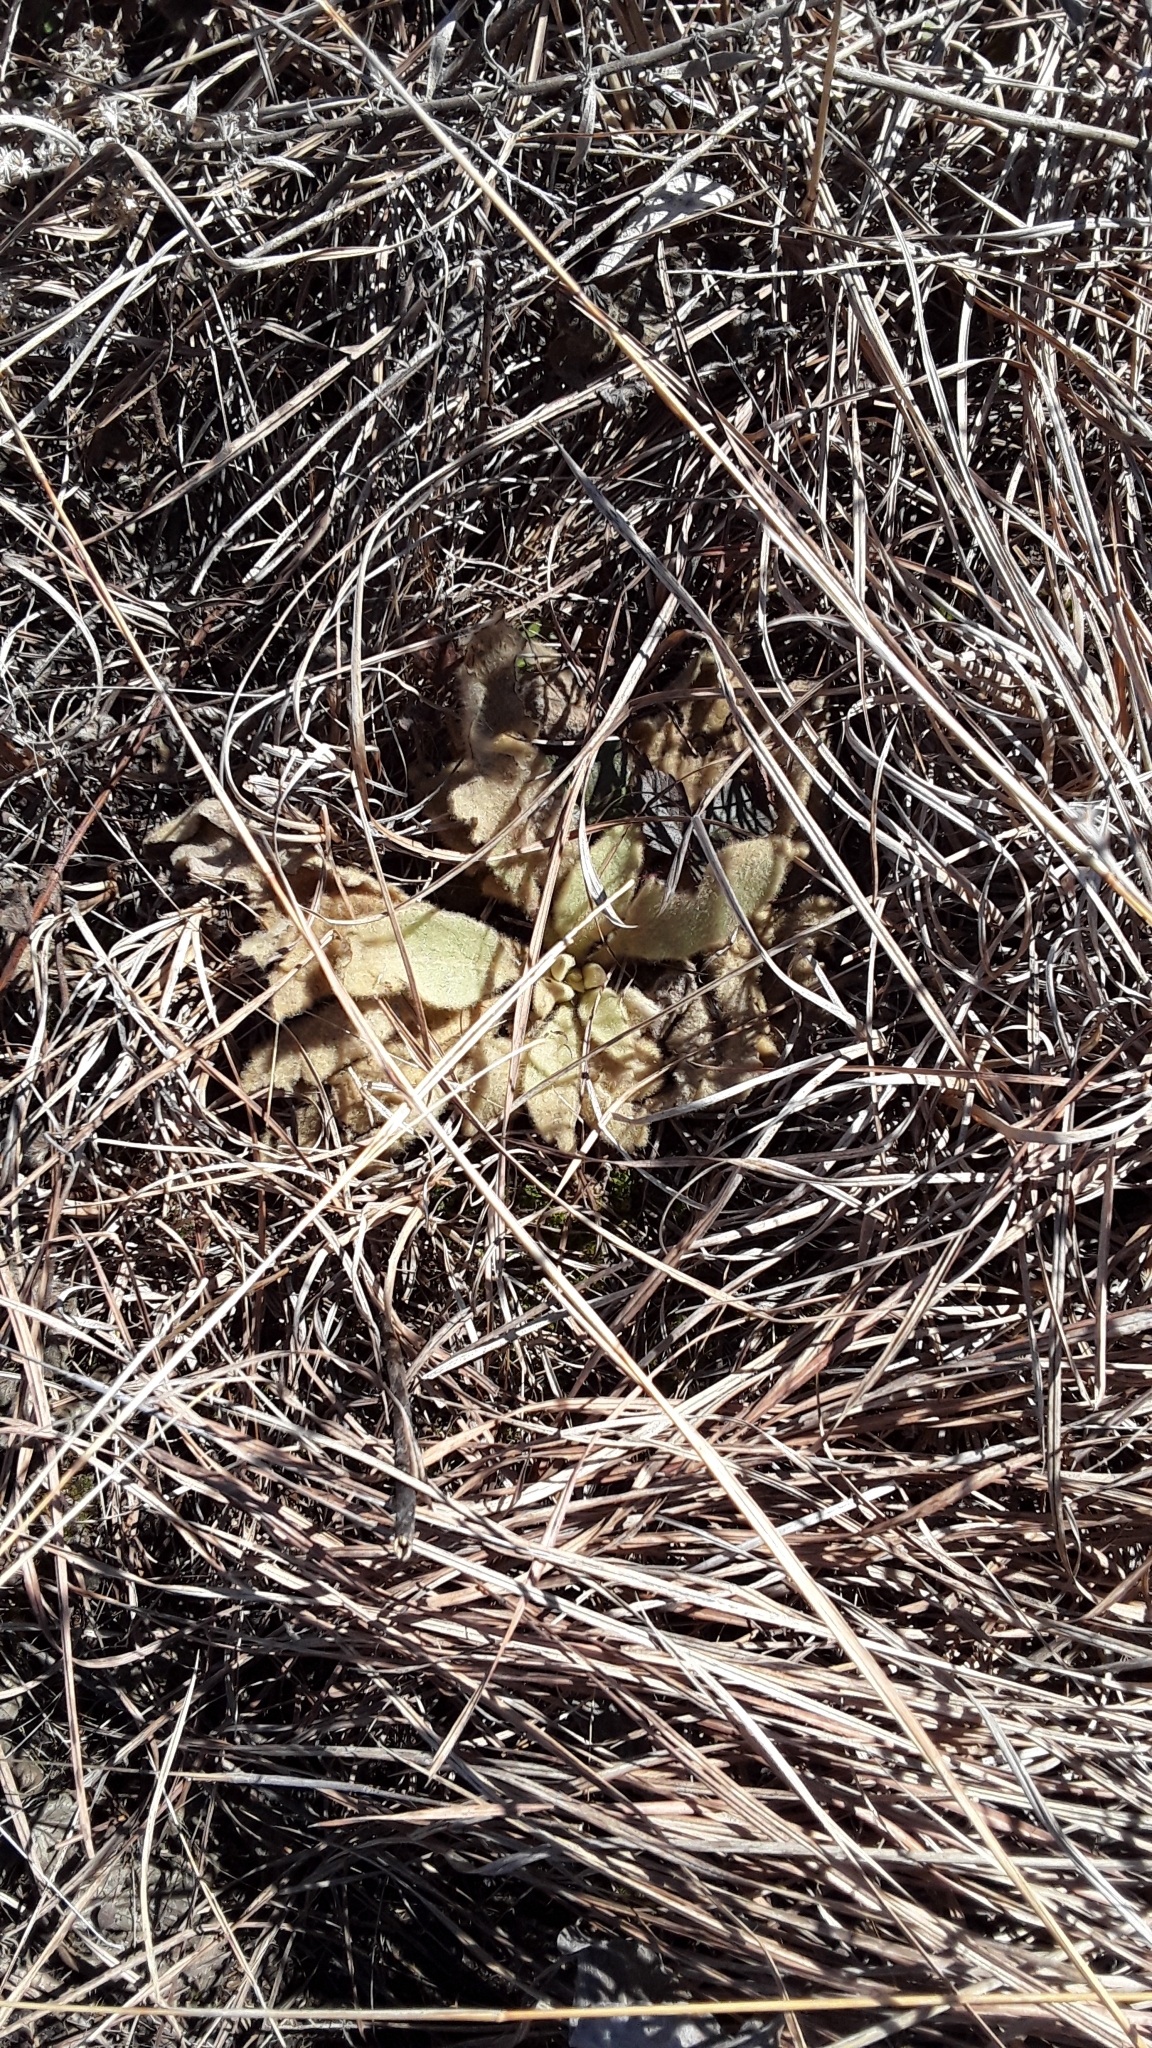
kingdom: Plantae
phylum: Tracheophyta
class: Magnoliopsida
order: Lamiales
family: Scrophulariaceae
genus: Verbascum
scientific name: Verbascum thapsus
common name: Common mullein
